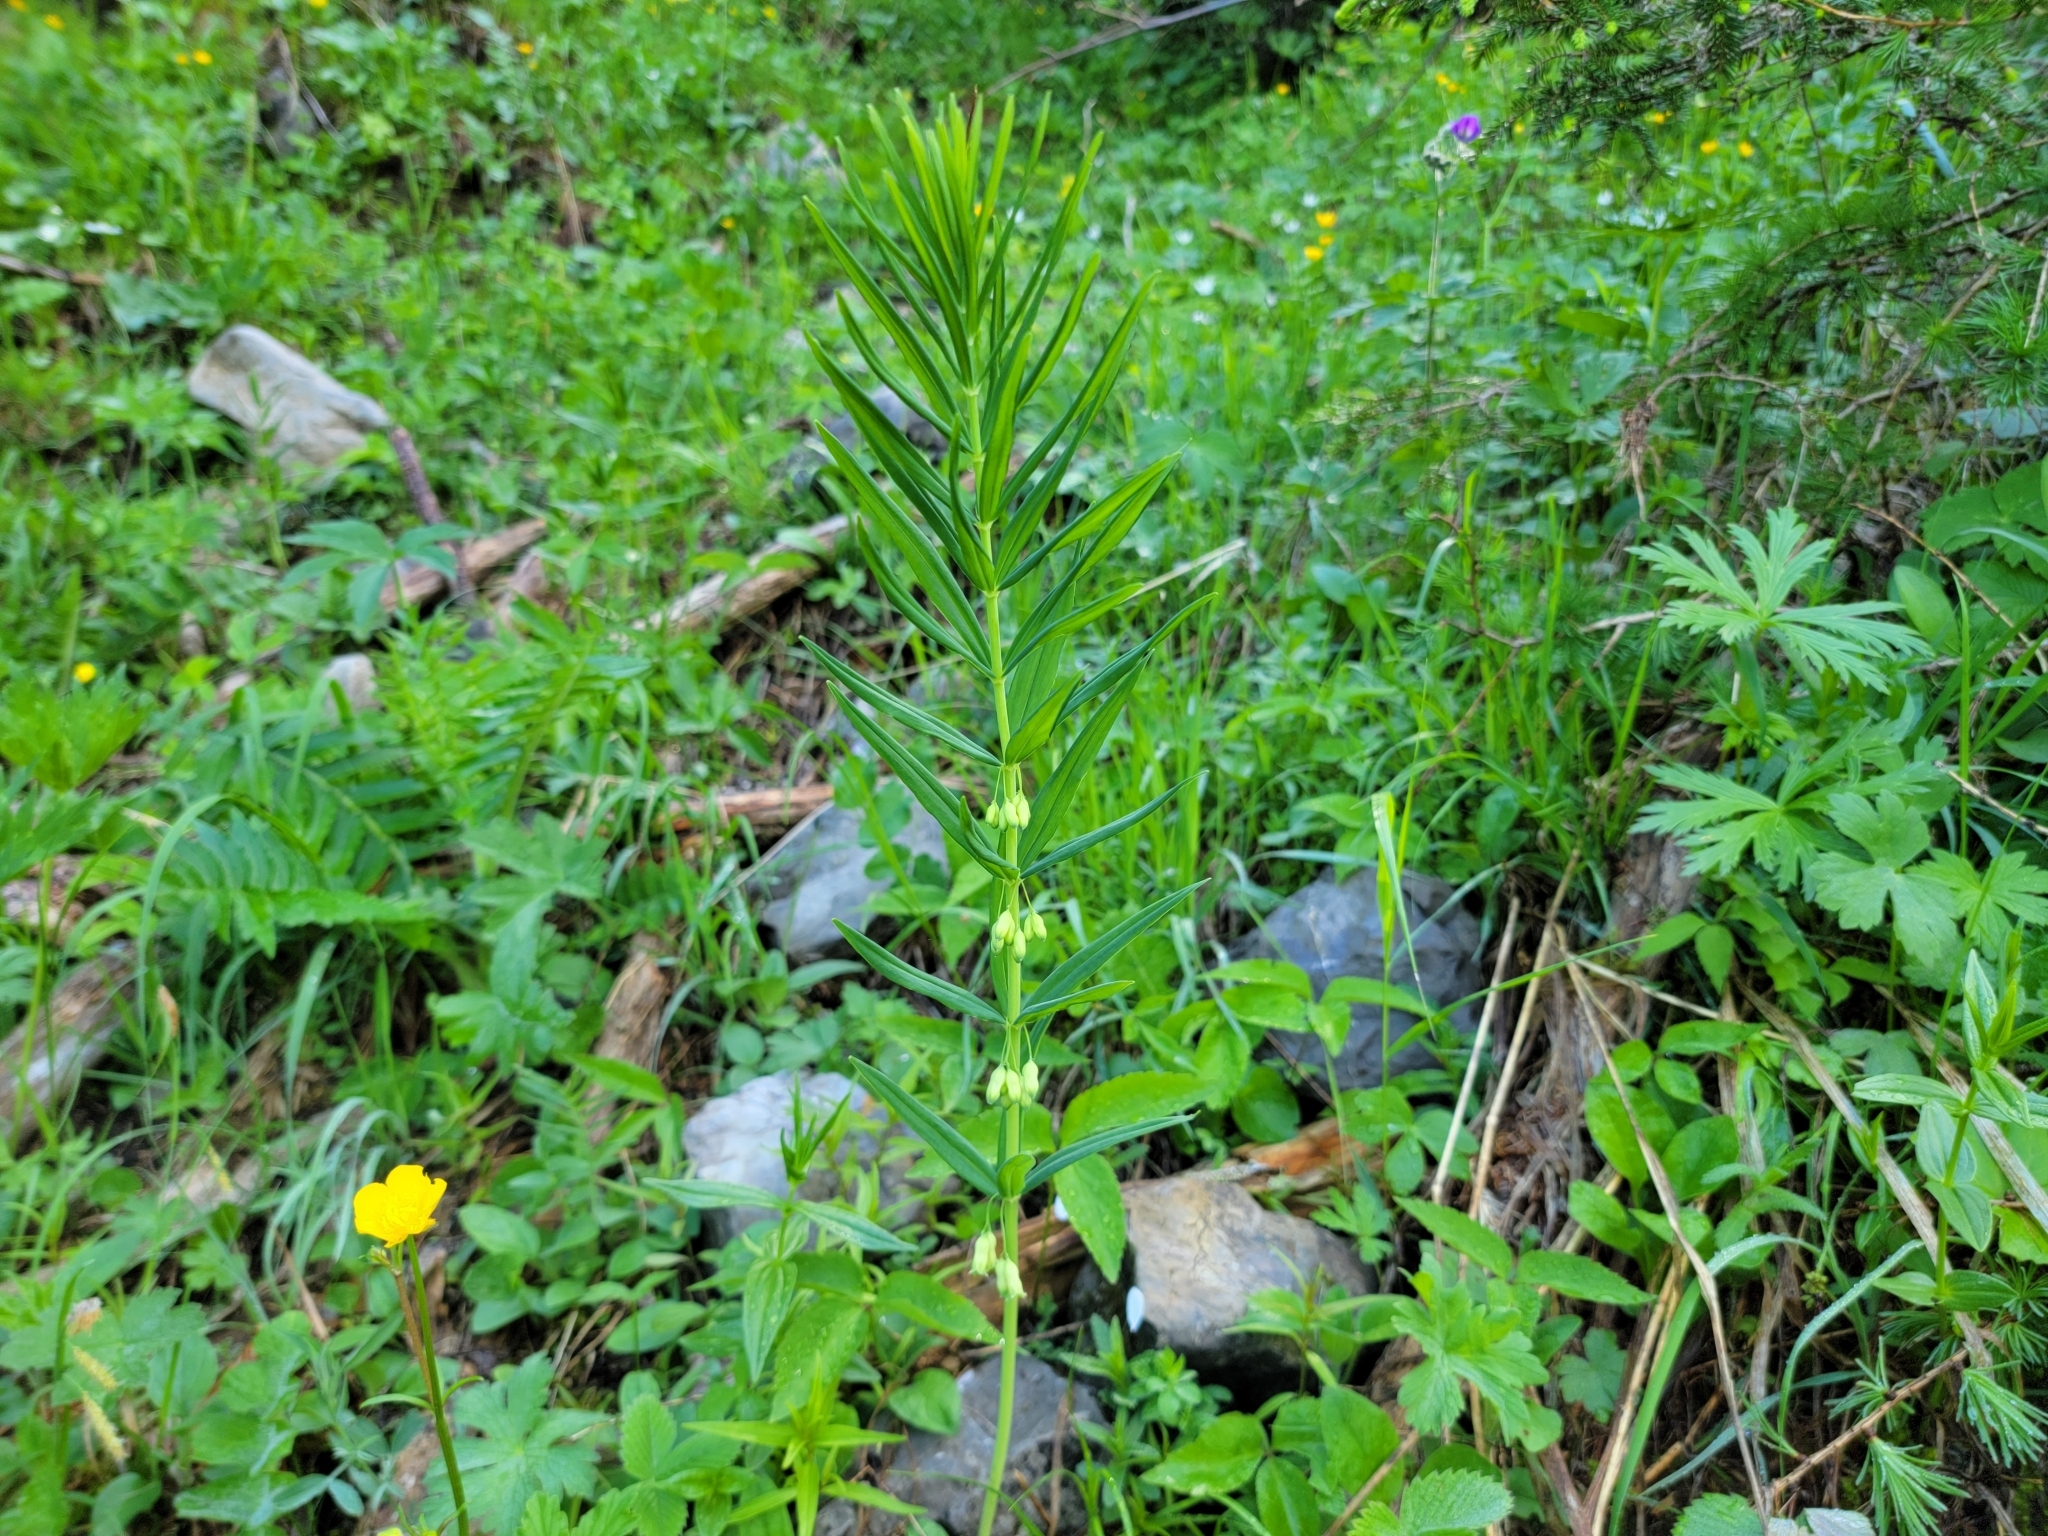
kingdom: Plantae
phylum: Tracheophyta
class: Liliopsida
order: Asparagales
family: Asparagaceae
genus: Polygonatum
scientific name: Polygonatum verticillatum
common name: Whorled solomon's-seal
